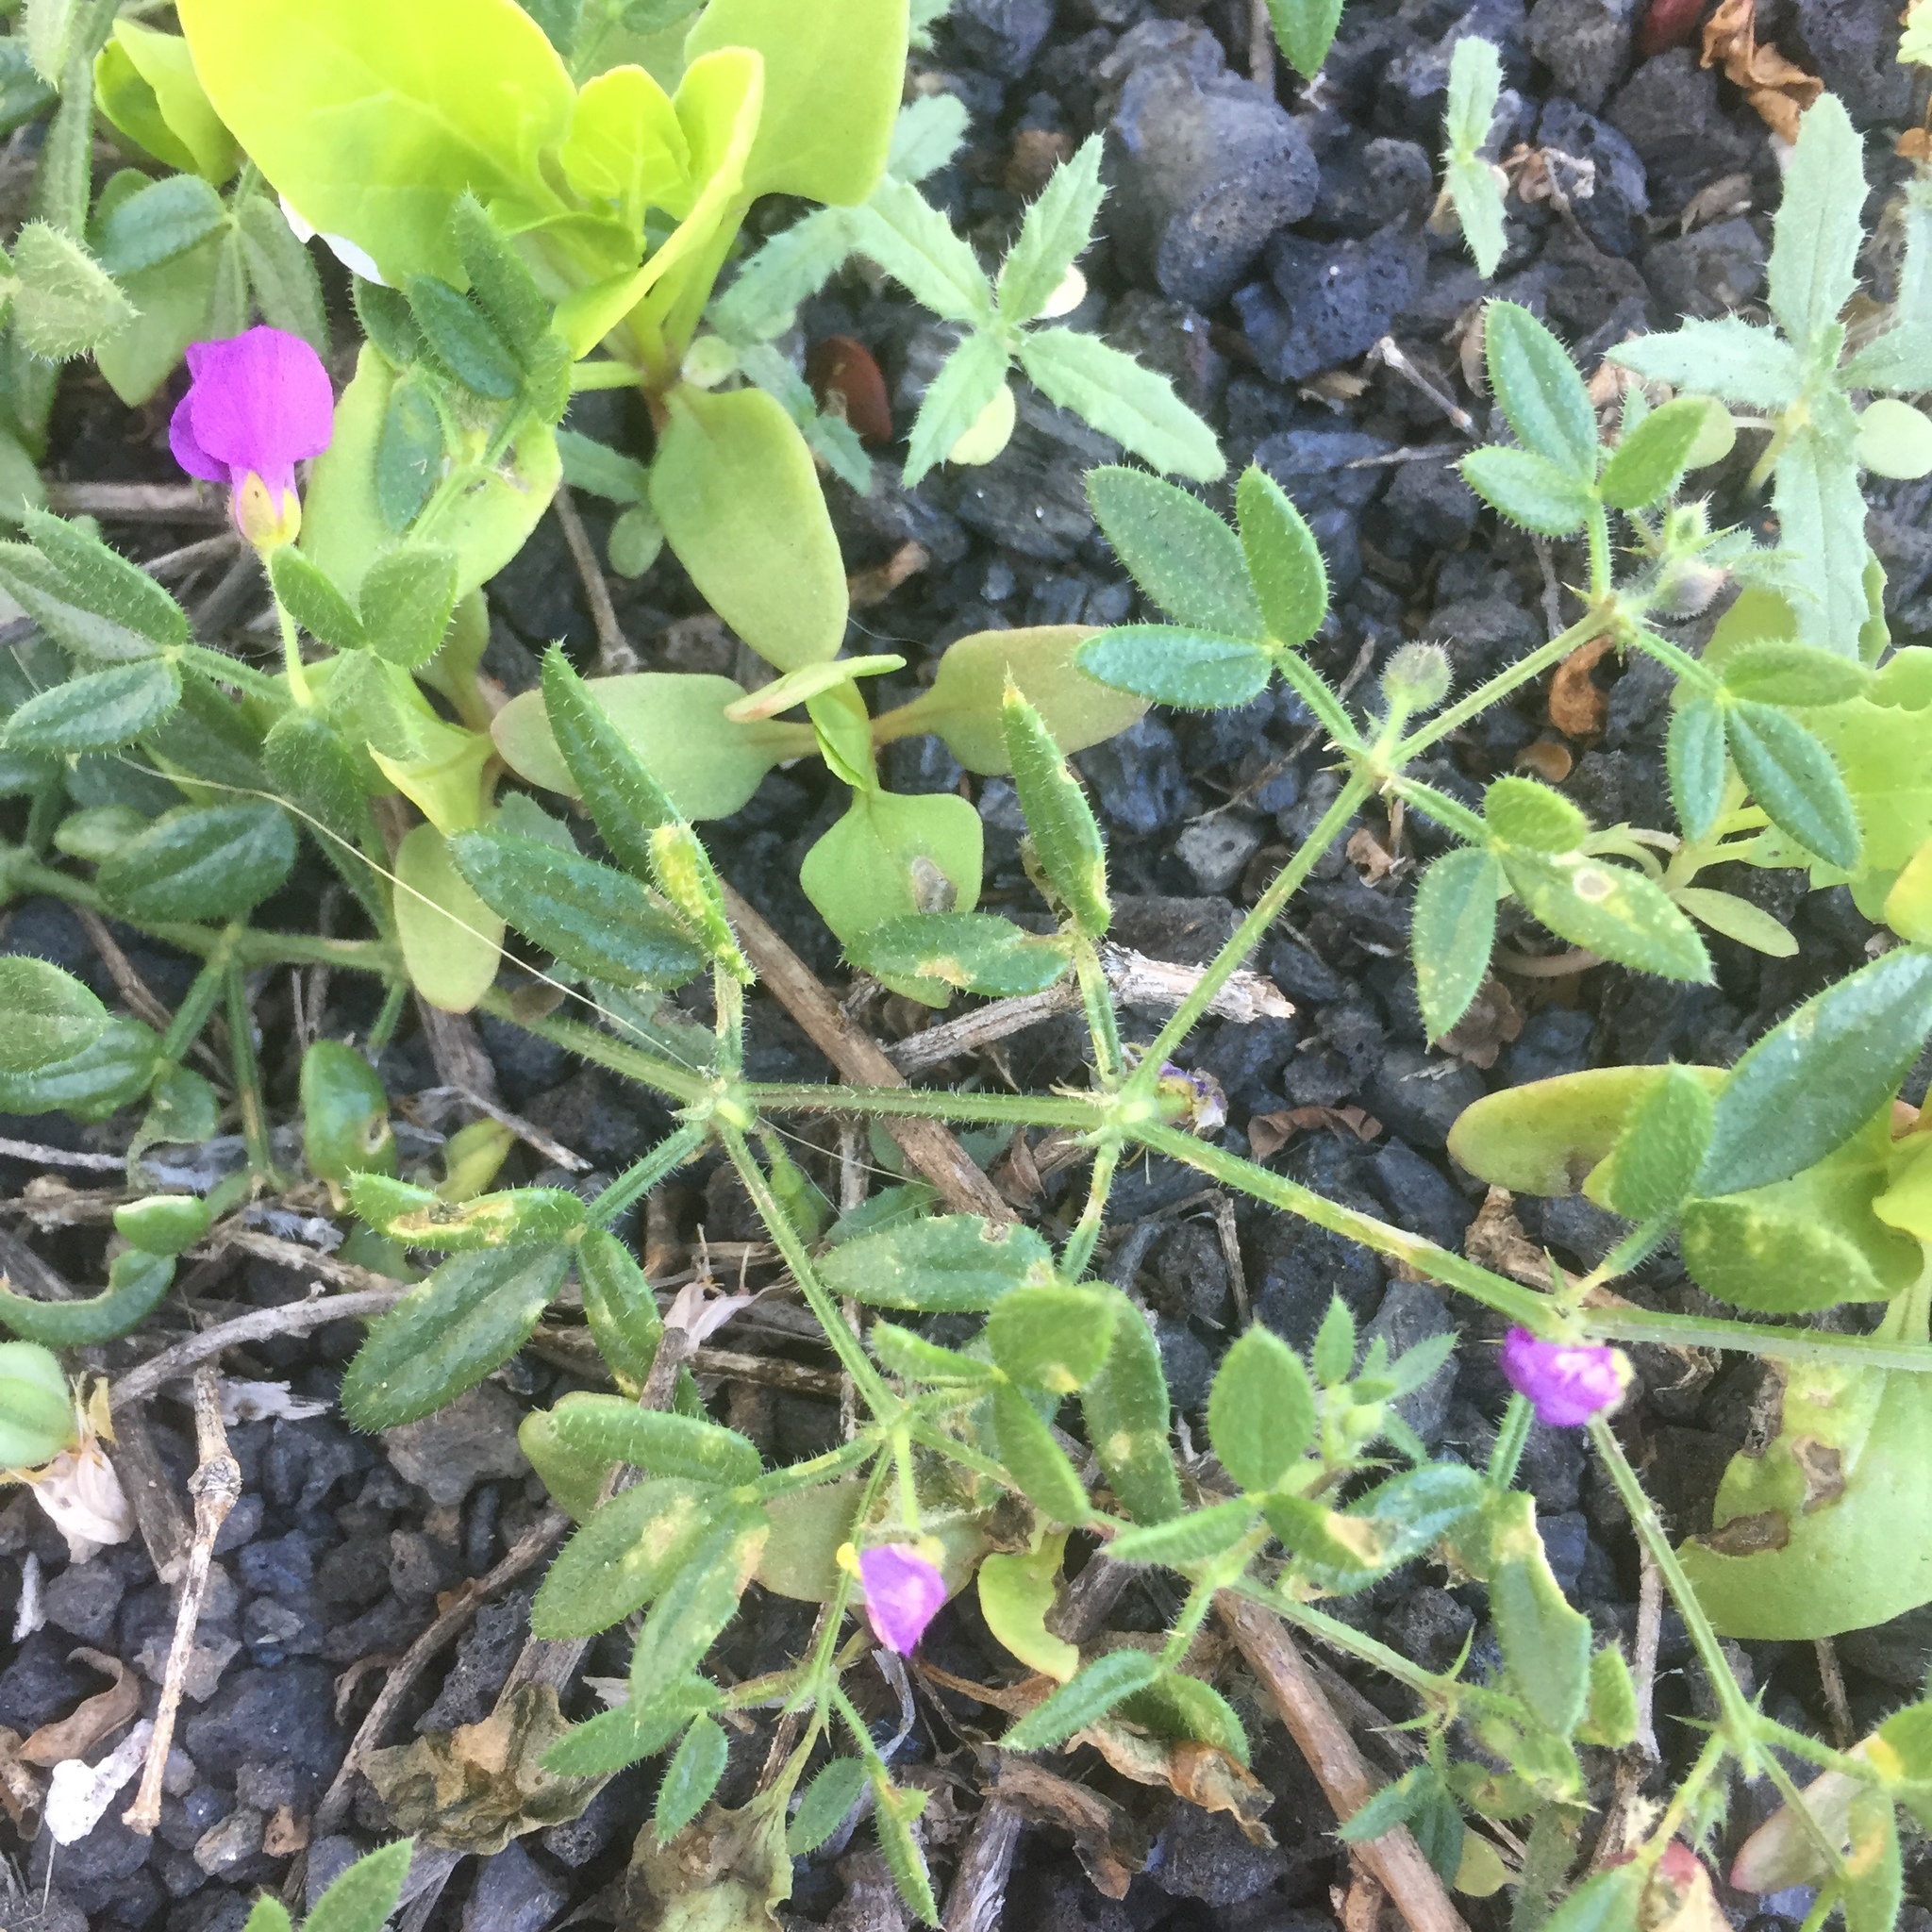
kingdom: Plantae
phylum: Tracheophyta
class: Magnoliopsida
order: Zygophyllales
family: Zygophyllaceae
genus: Fagonia
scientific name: Fagonia cretica
